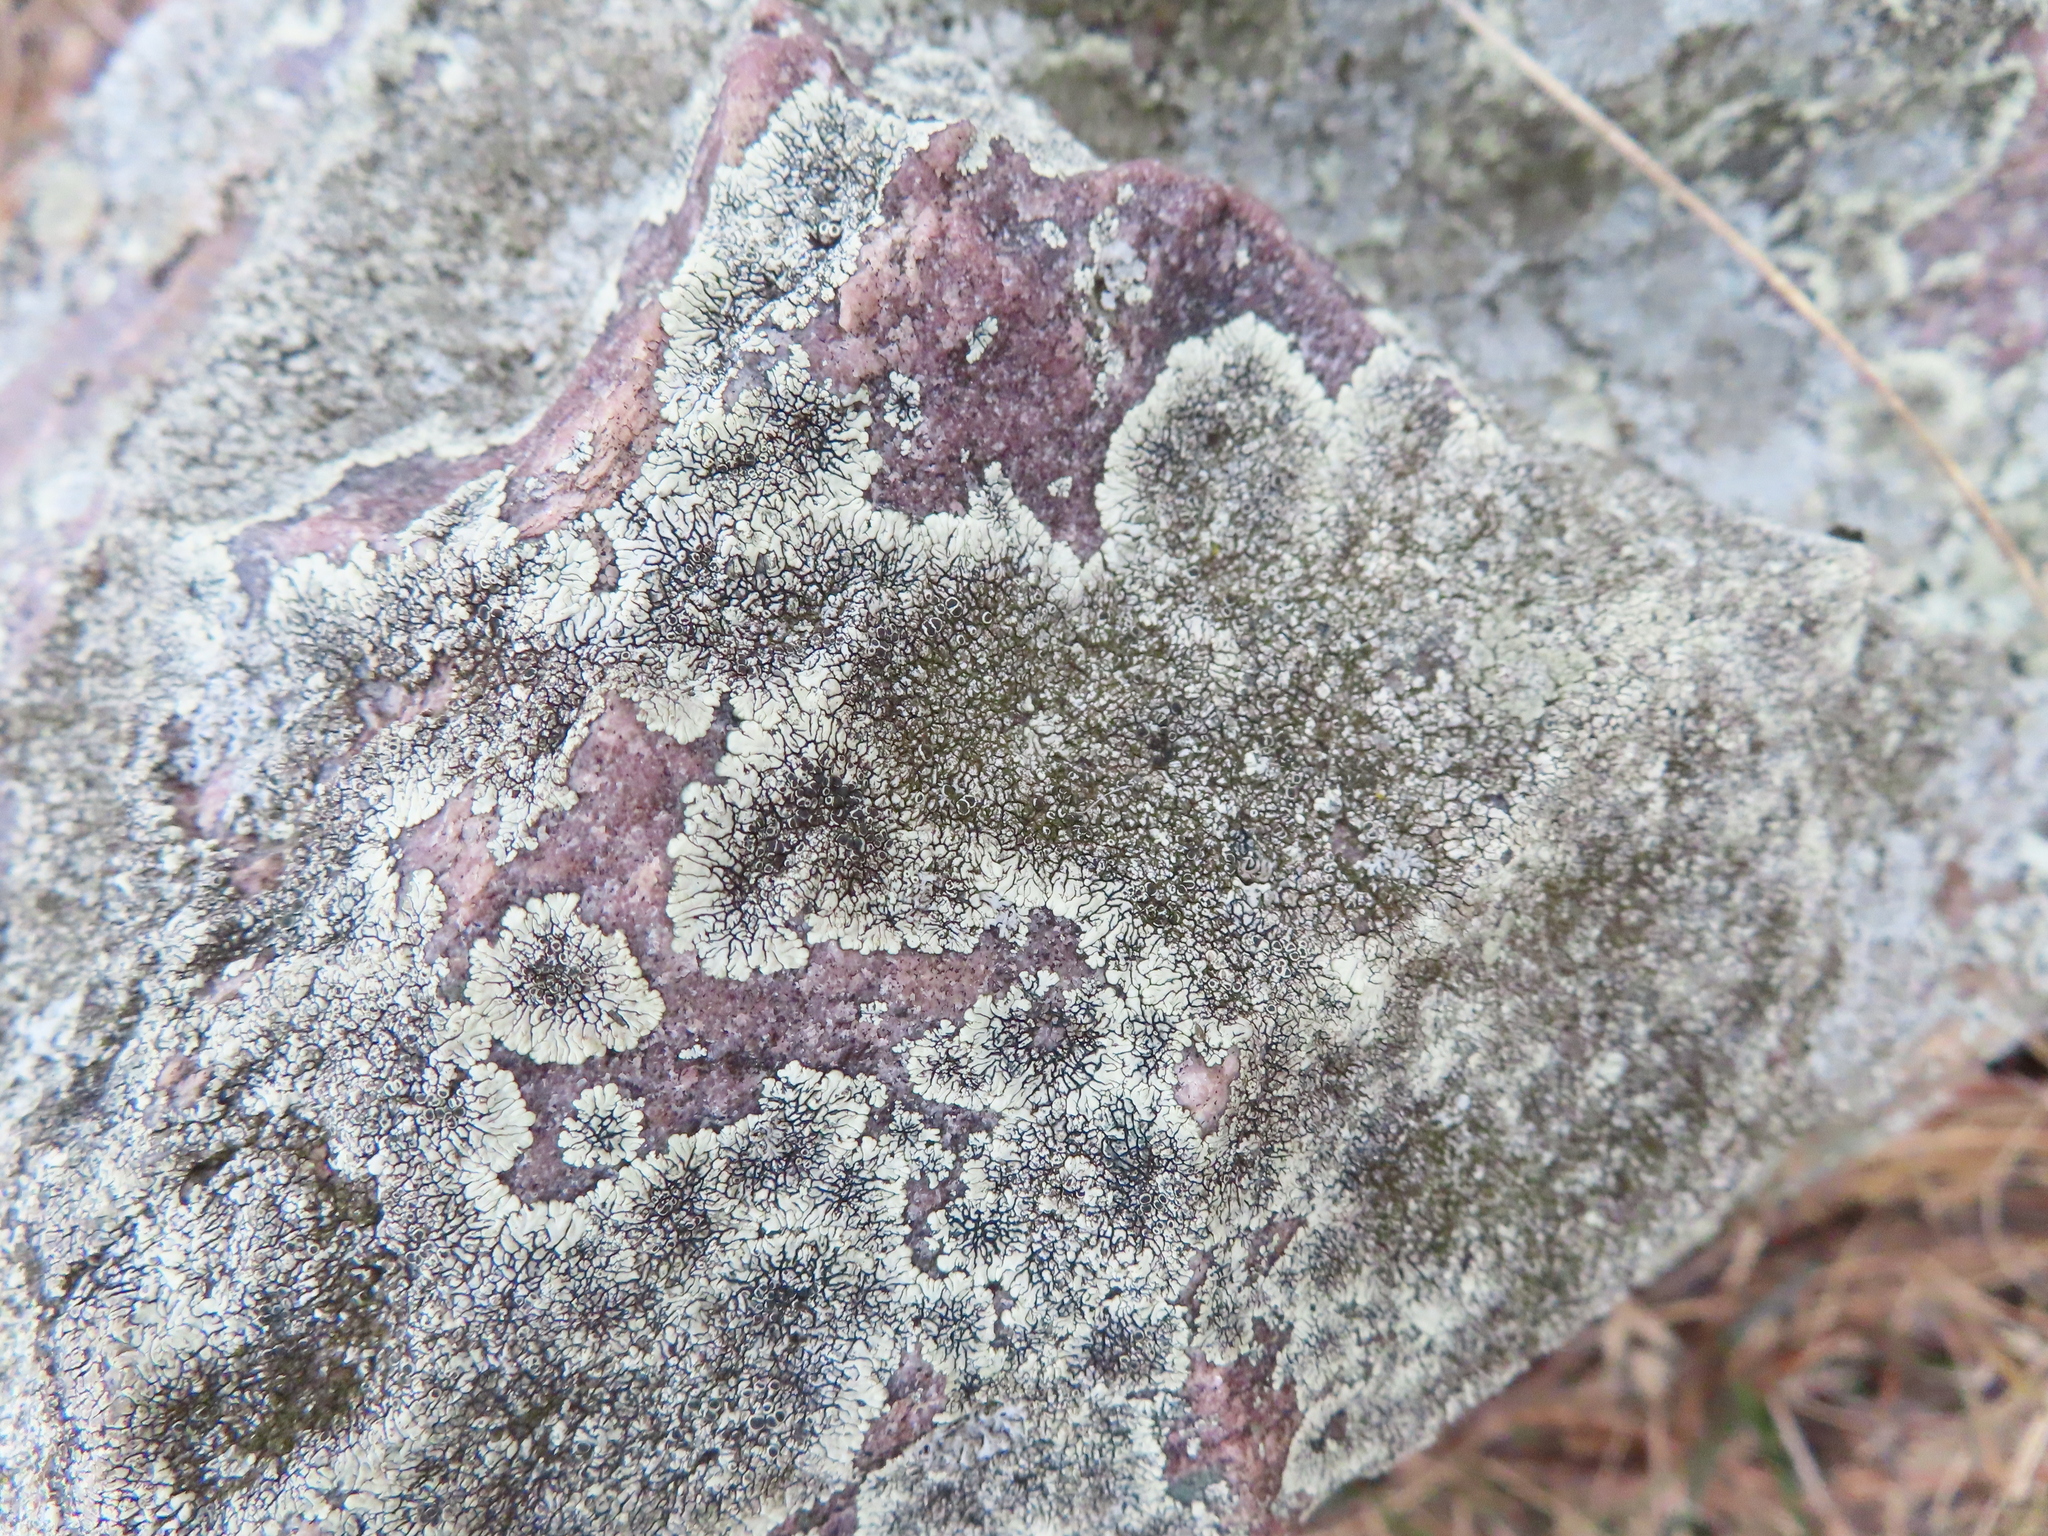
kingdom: Fungi
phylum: Ascomycota
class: Lecanoromycetes
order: Caliciales
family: Caliciaceae
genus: Dimelaena
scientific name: Dimelaena oreina
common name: Golden moonglow lichen
